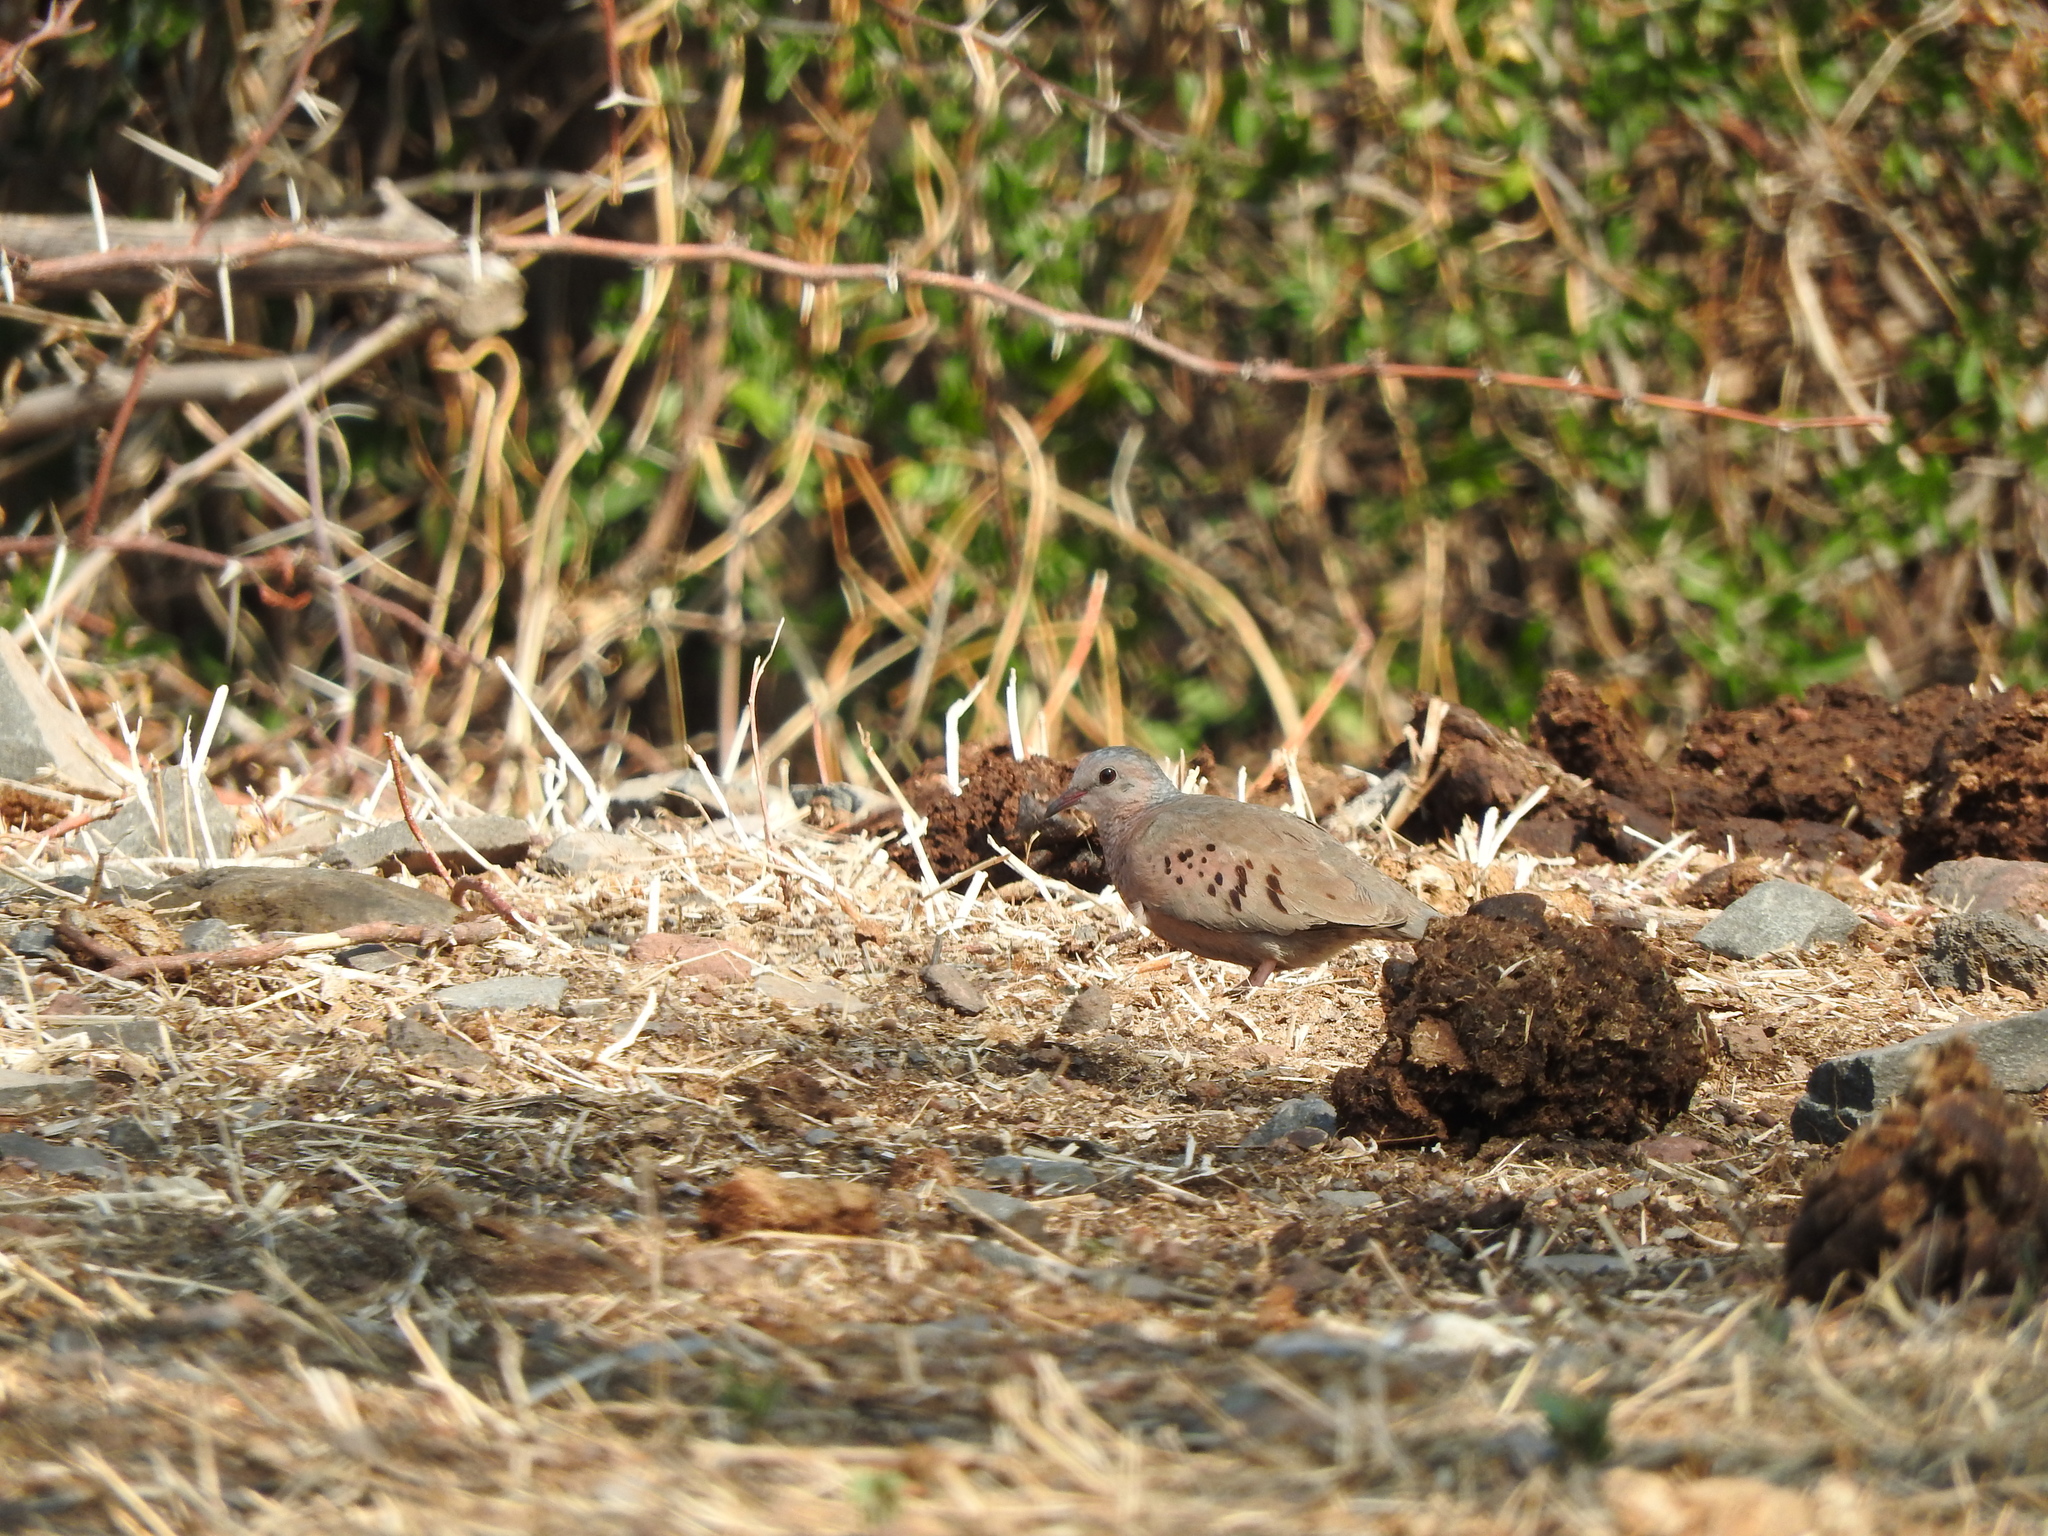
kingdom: Animalia
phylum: Chordata
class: Aves
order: Columbiformes
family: Columbidae
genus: Columbina
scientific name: Columbina passerina
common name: Common ground-dove
